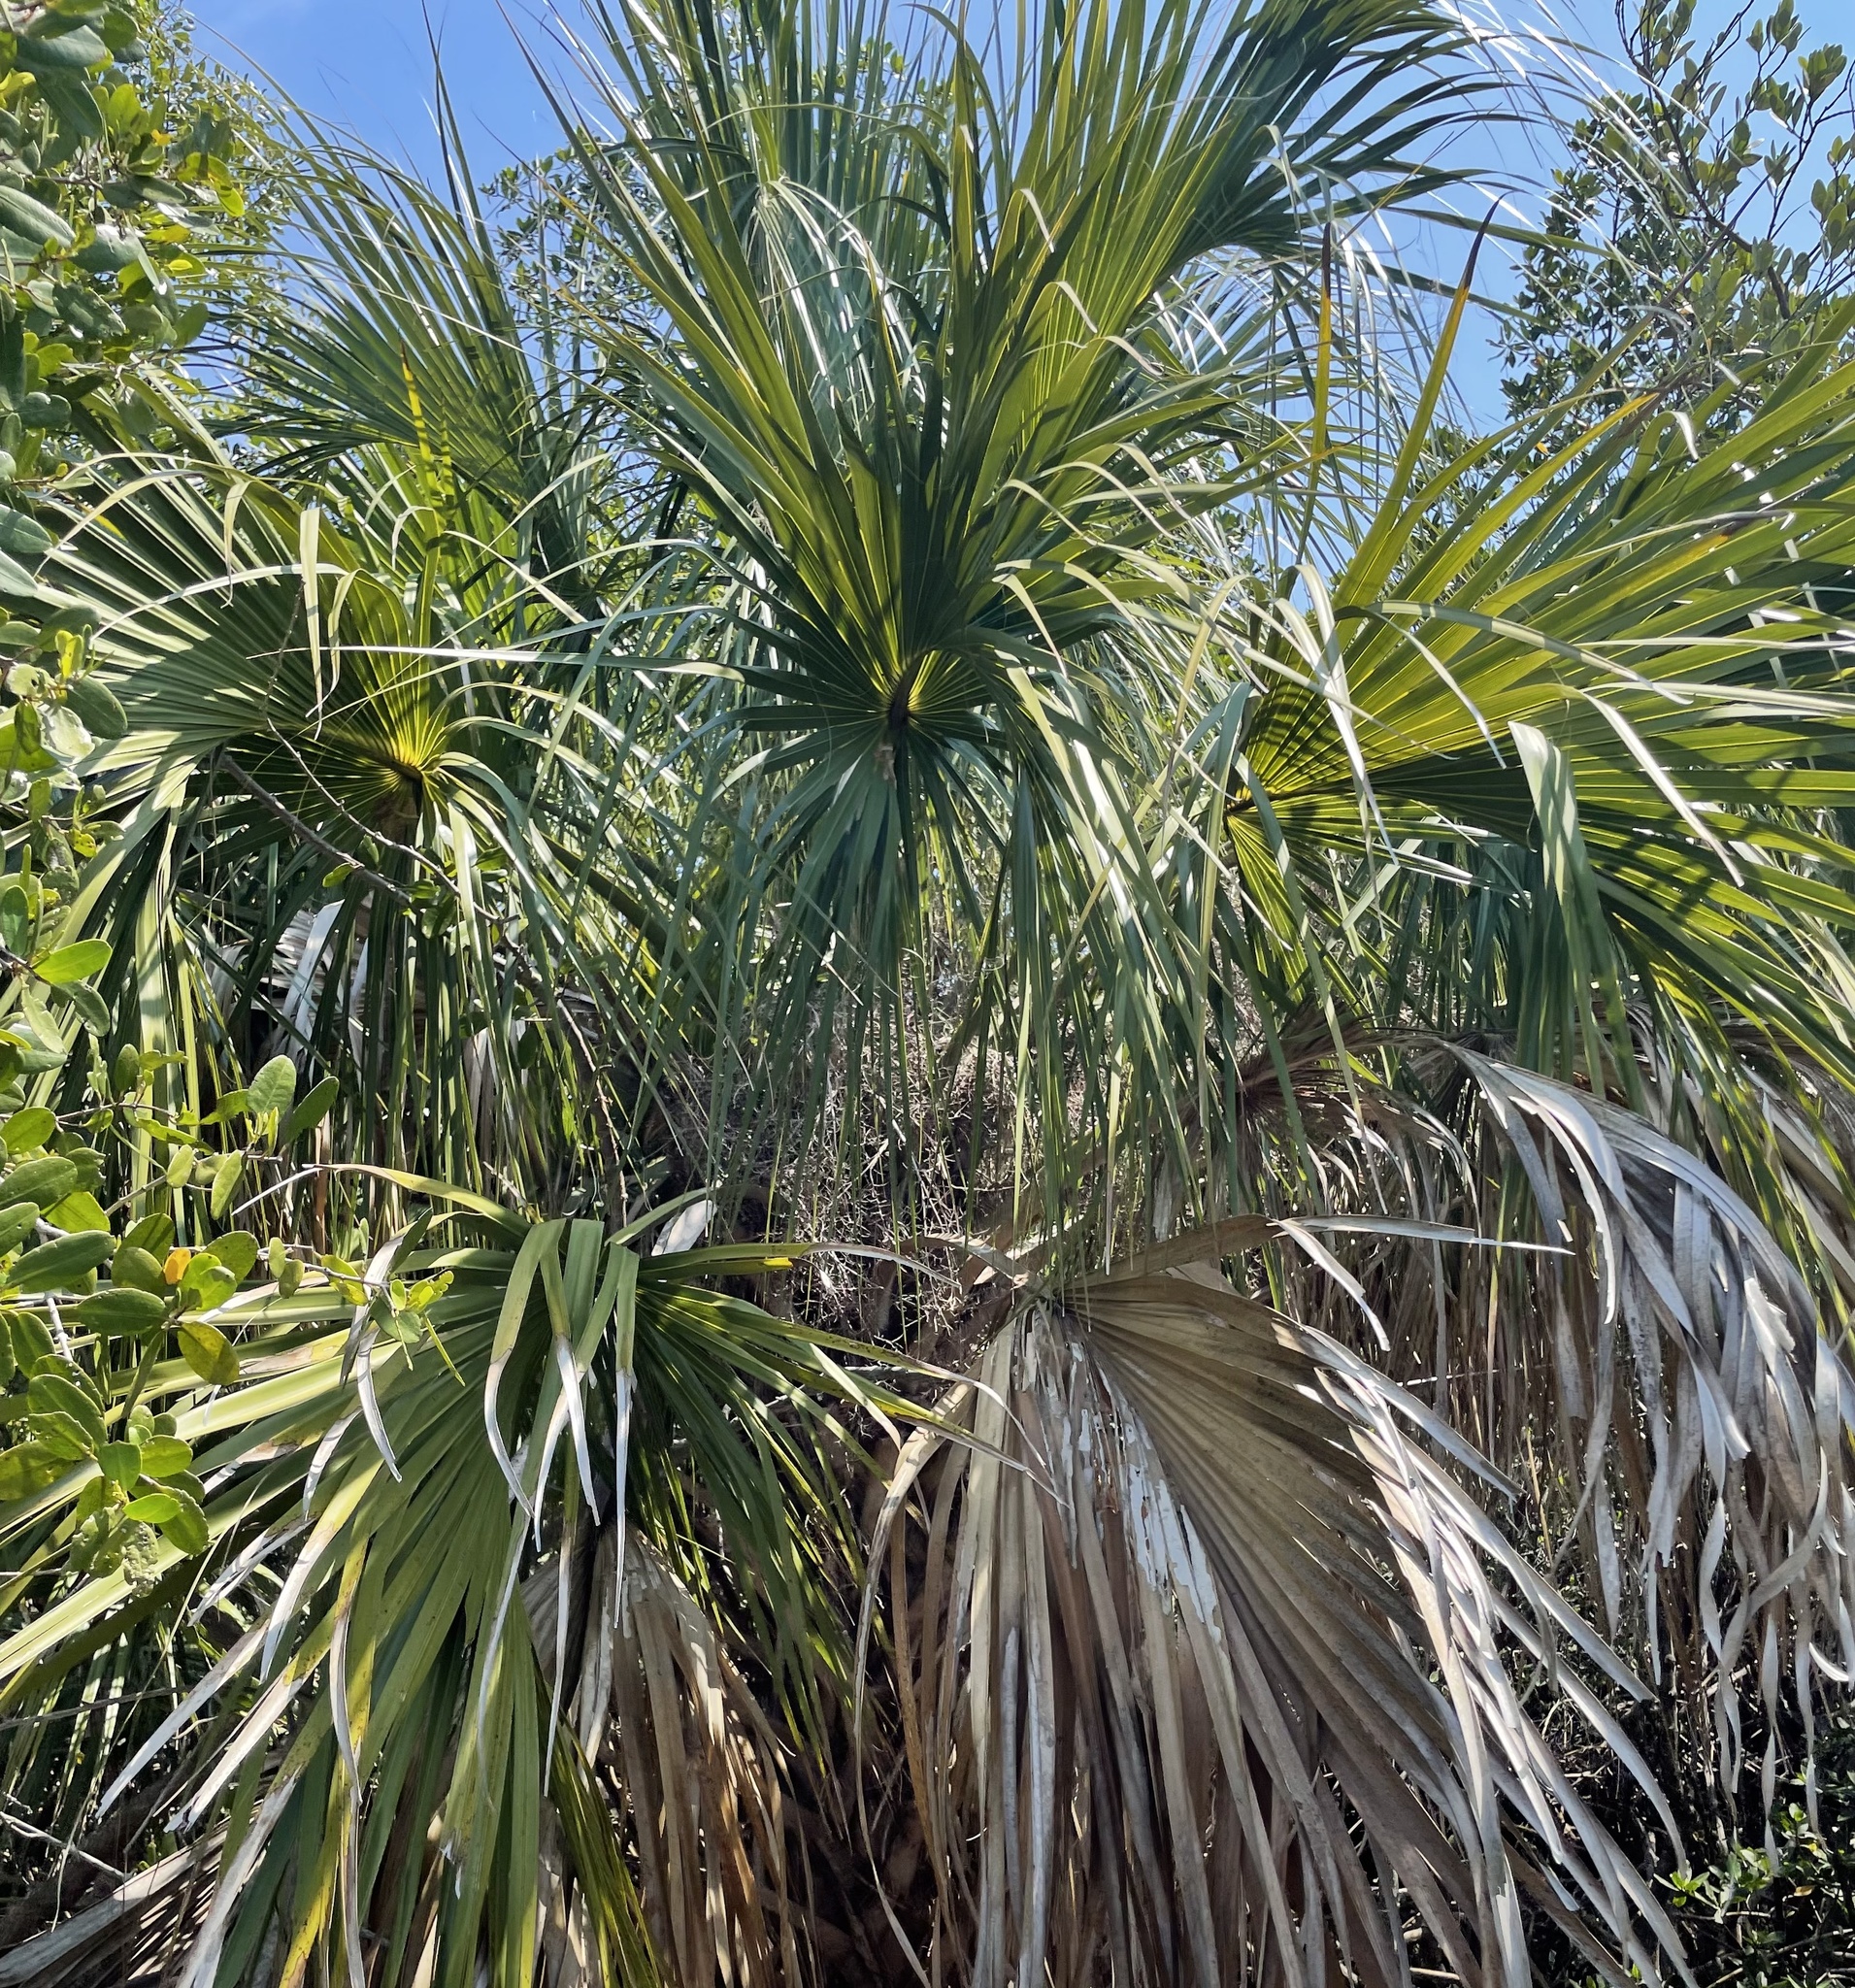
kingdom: Plantae
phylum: Tracheophyta
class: Liliopsida
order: Arecales
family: Arecaceae
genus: Sabal
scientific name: Sabal palmetto
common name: Blue palmetto
